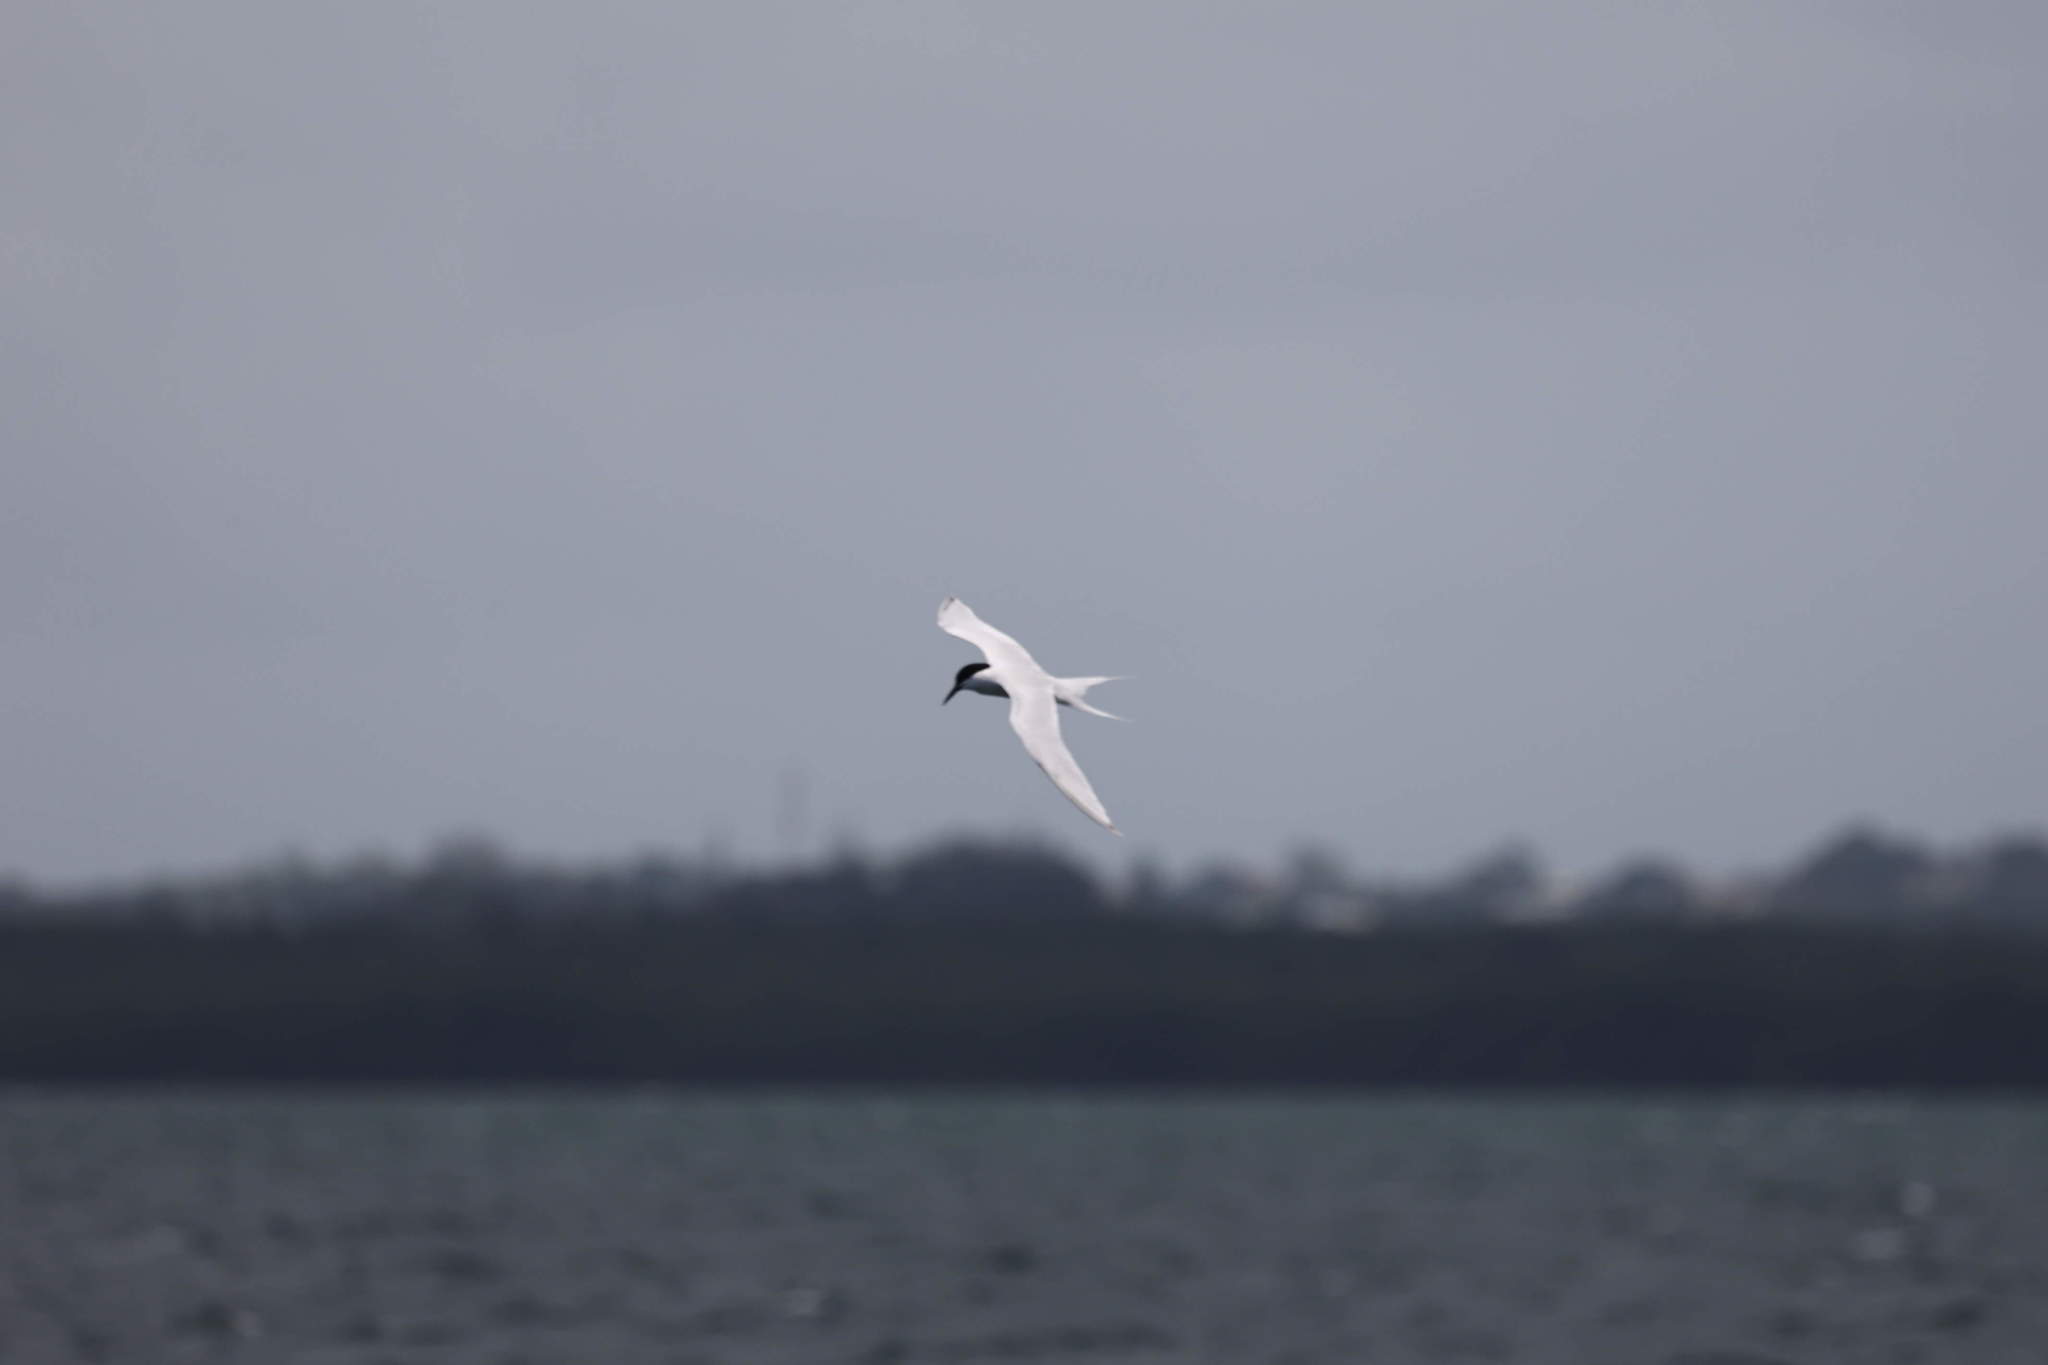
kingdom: Animalia
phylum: Chordata
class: Aves
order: Charadriiformes
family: Laridae
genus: Sterna
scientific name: Sterna dougallii
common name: Roseate tern
